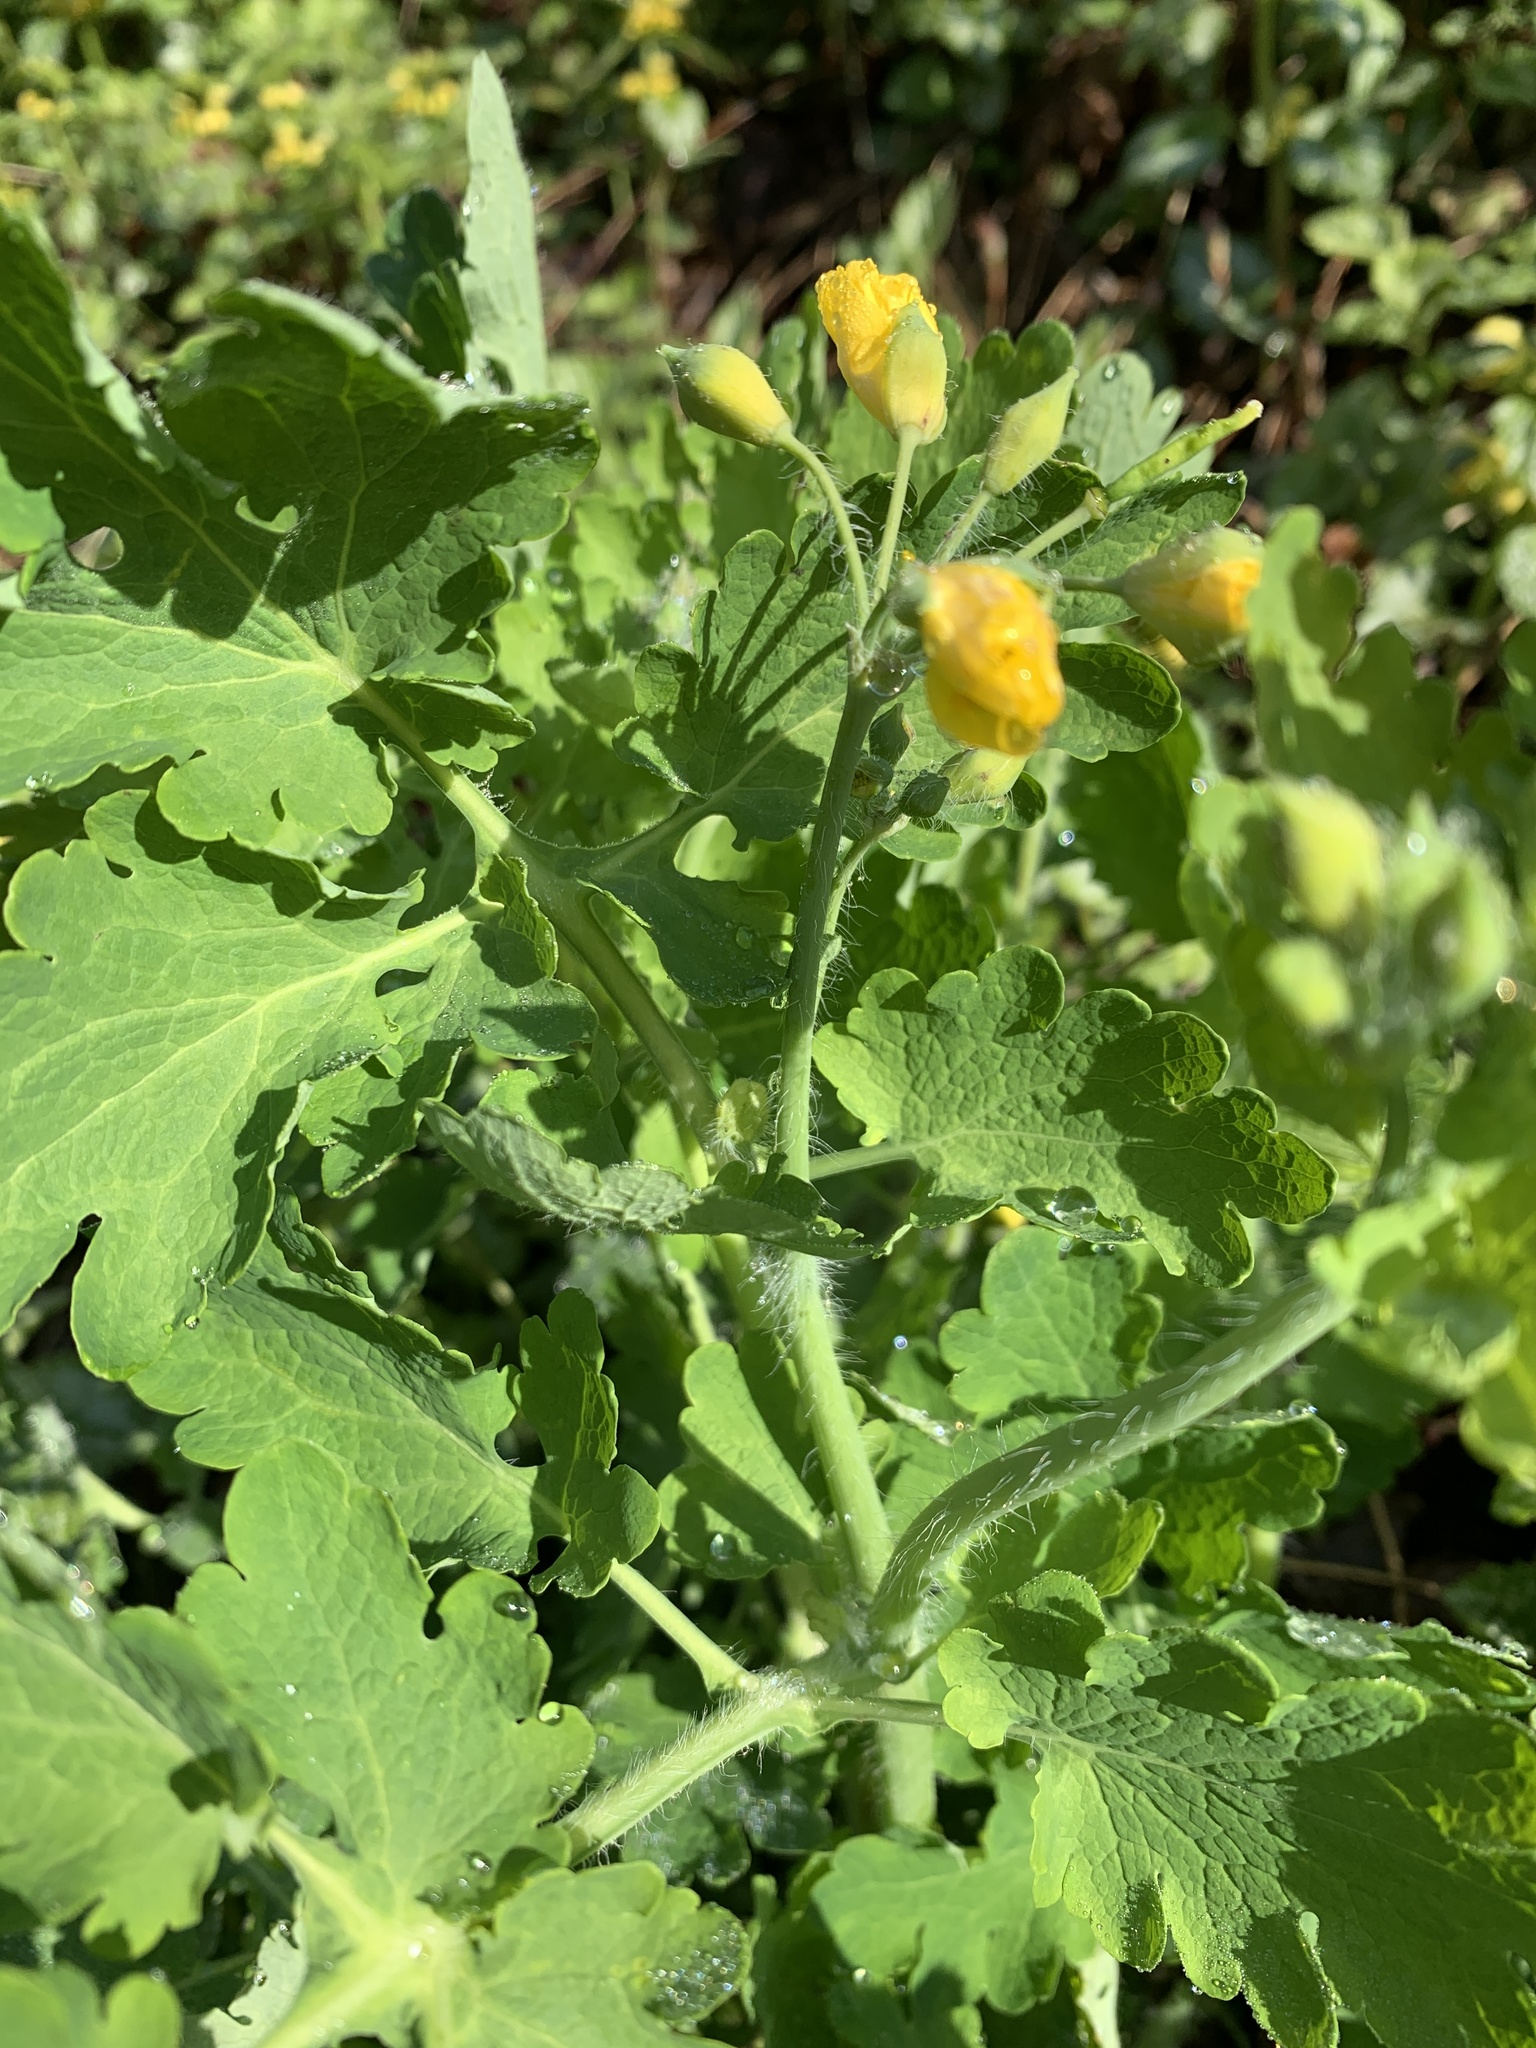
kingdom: Plantae
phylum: Tracheophyta
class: Magnoliopsida
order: Ranunculales
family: Papaveraceae
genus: Chelidonium
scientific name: Chelidonium majus
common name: Greater celandine
